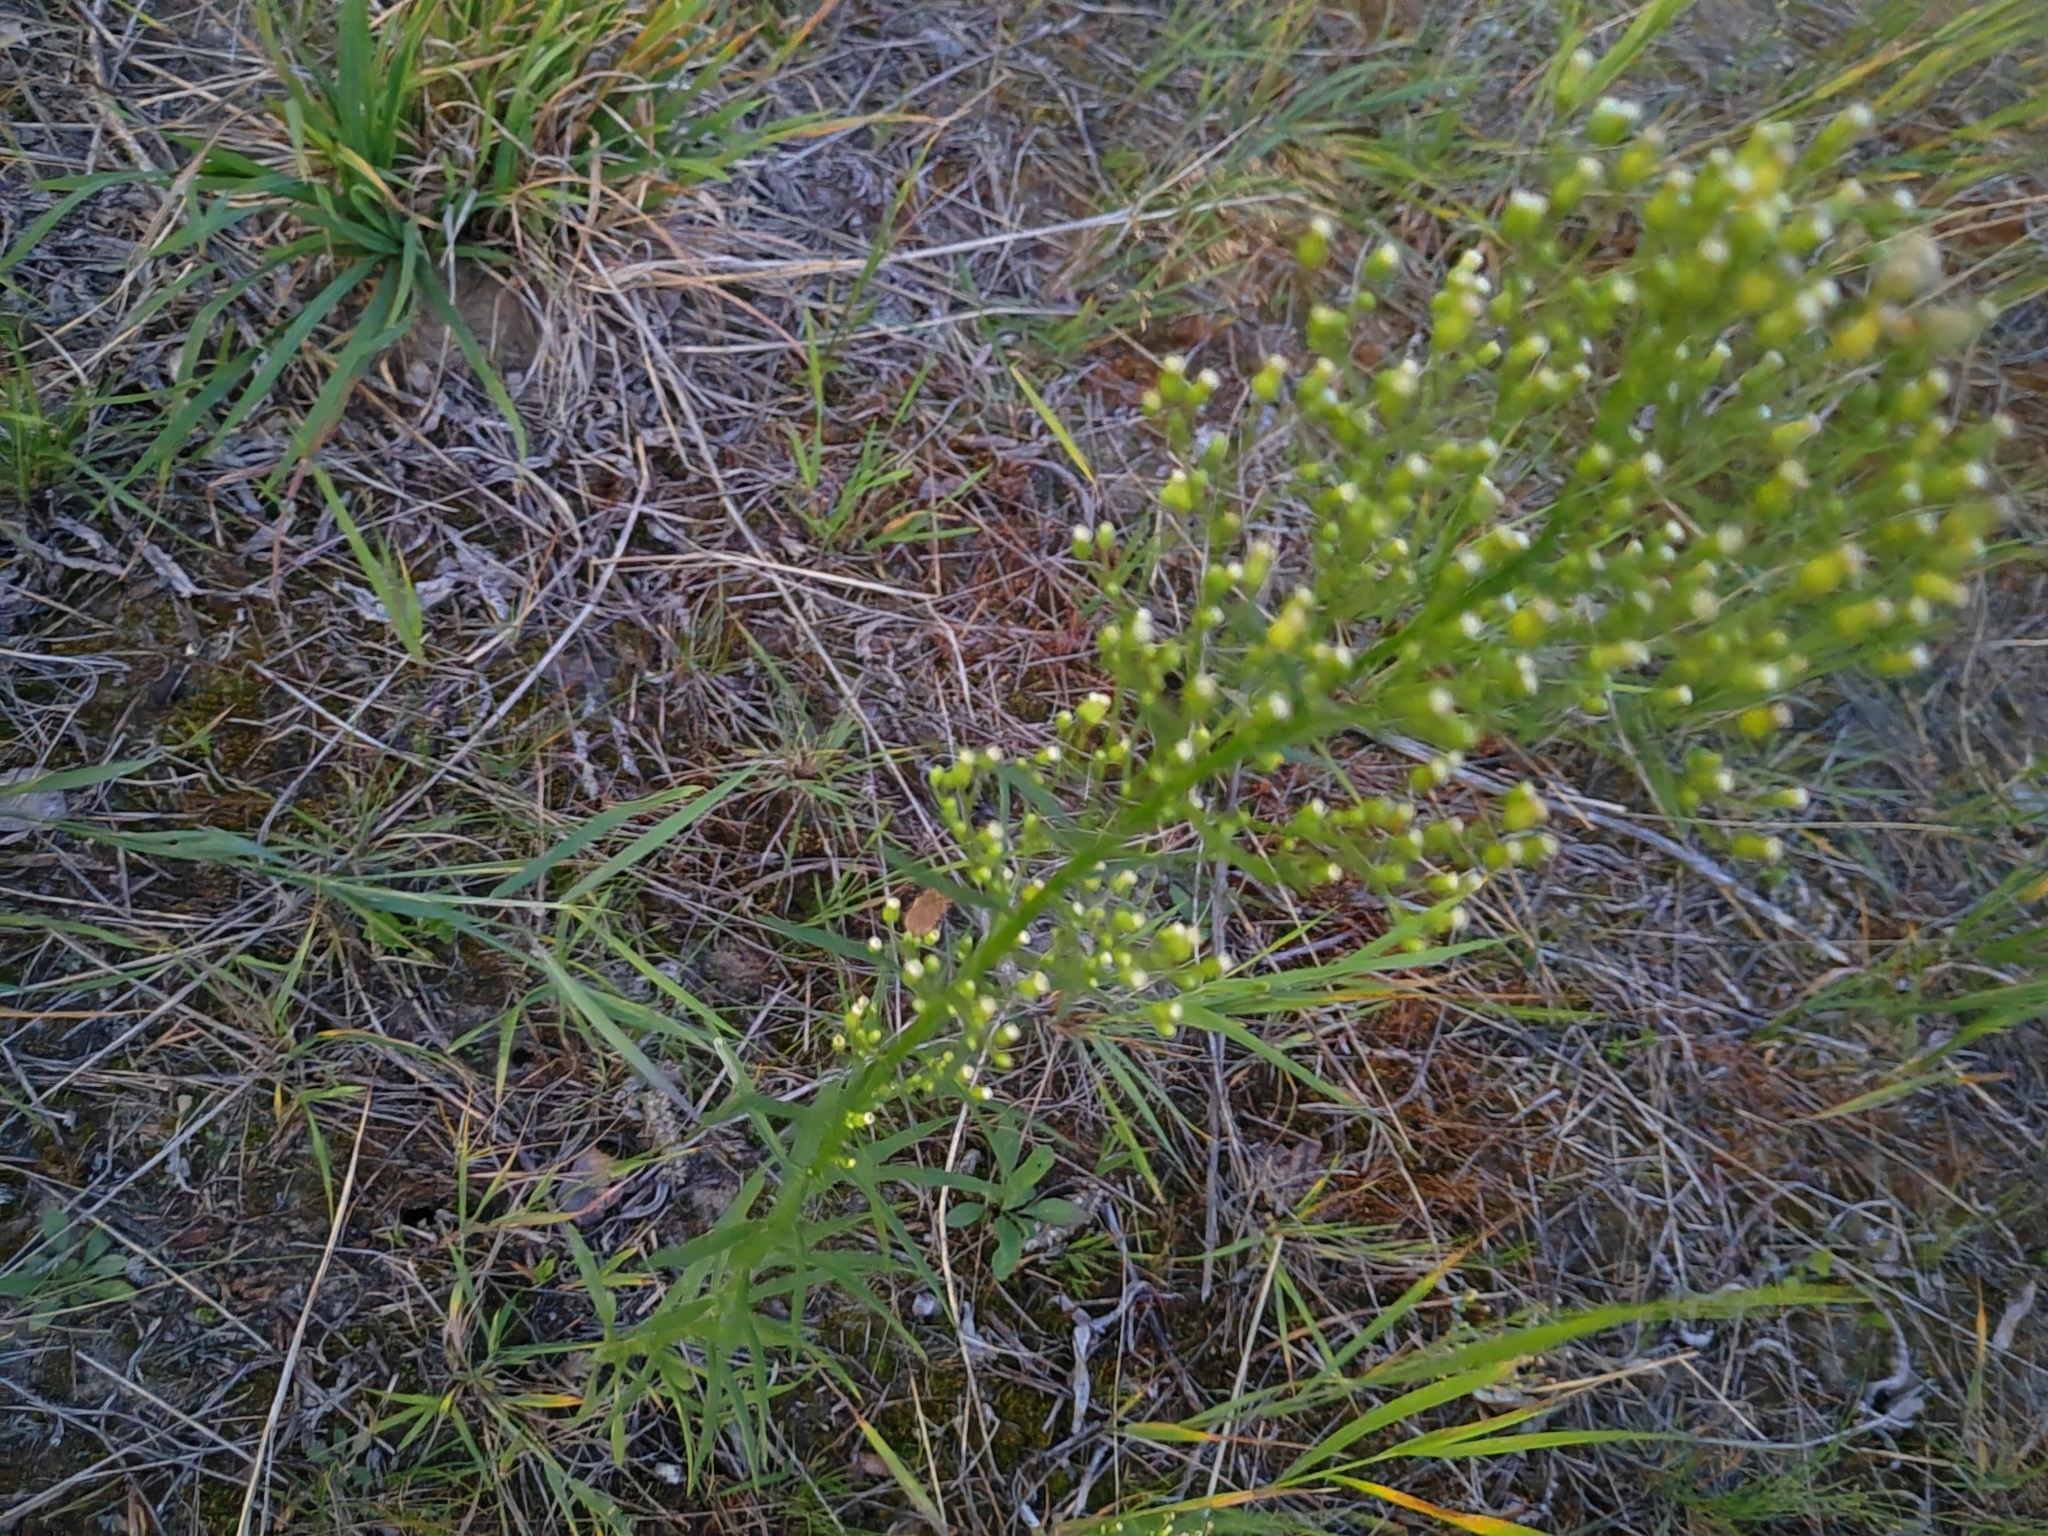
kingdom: Plantae
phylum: Tracheophyta
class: Magnoliopsida
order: Asterales
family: Asteraceae
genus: Erigeron
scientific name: Erigeron canadensis
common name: Canadian fleabane
